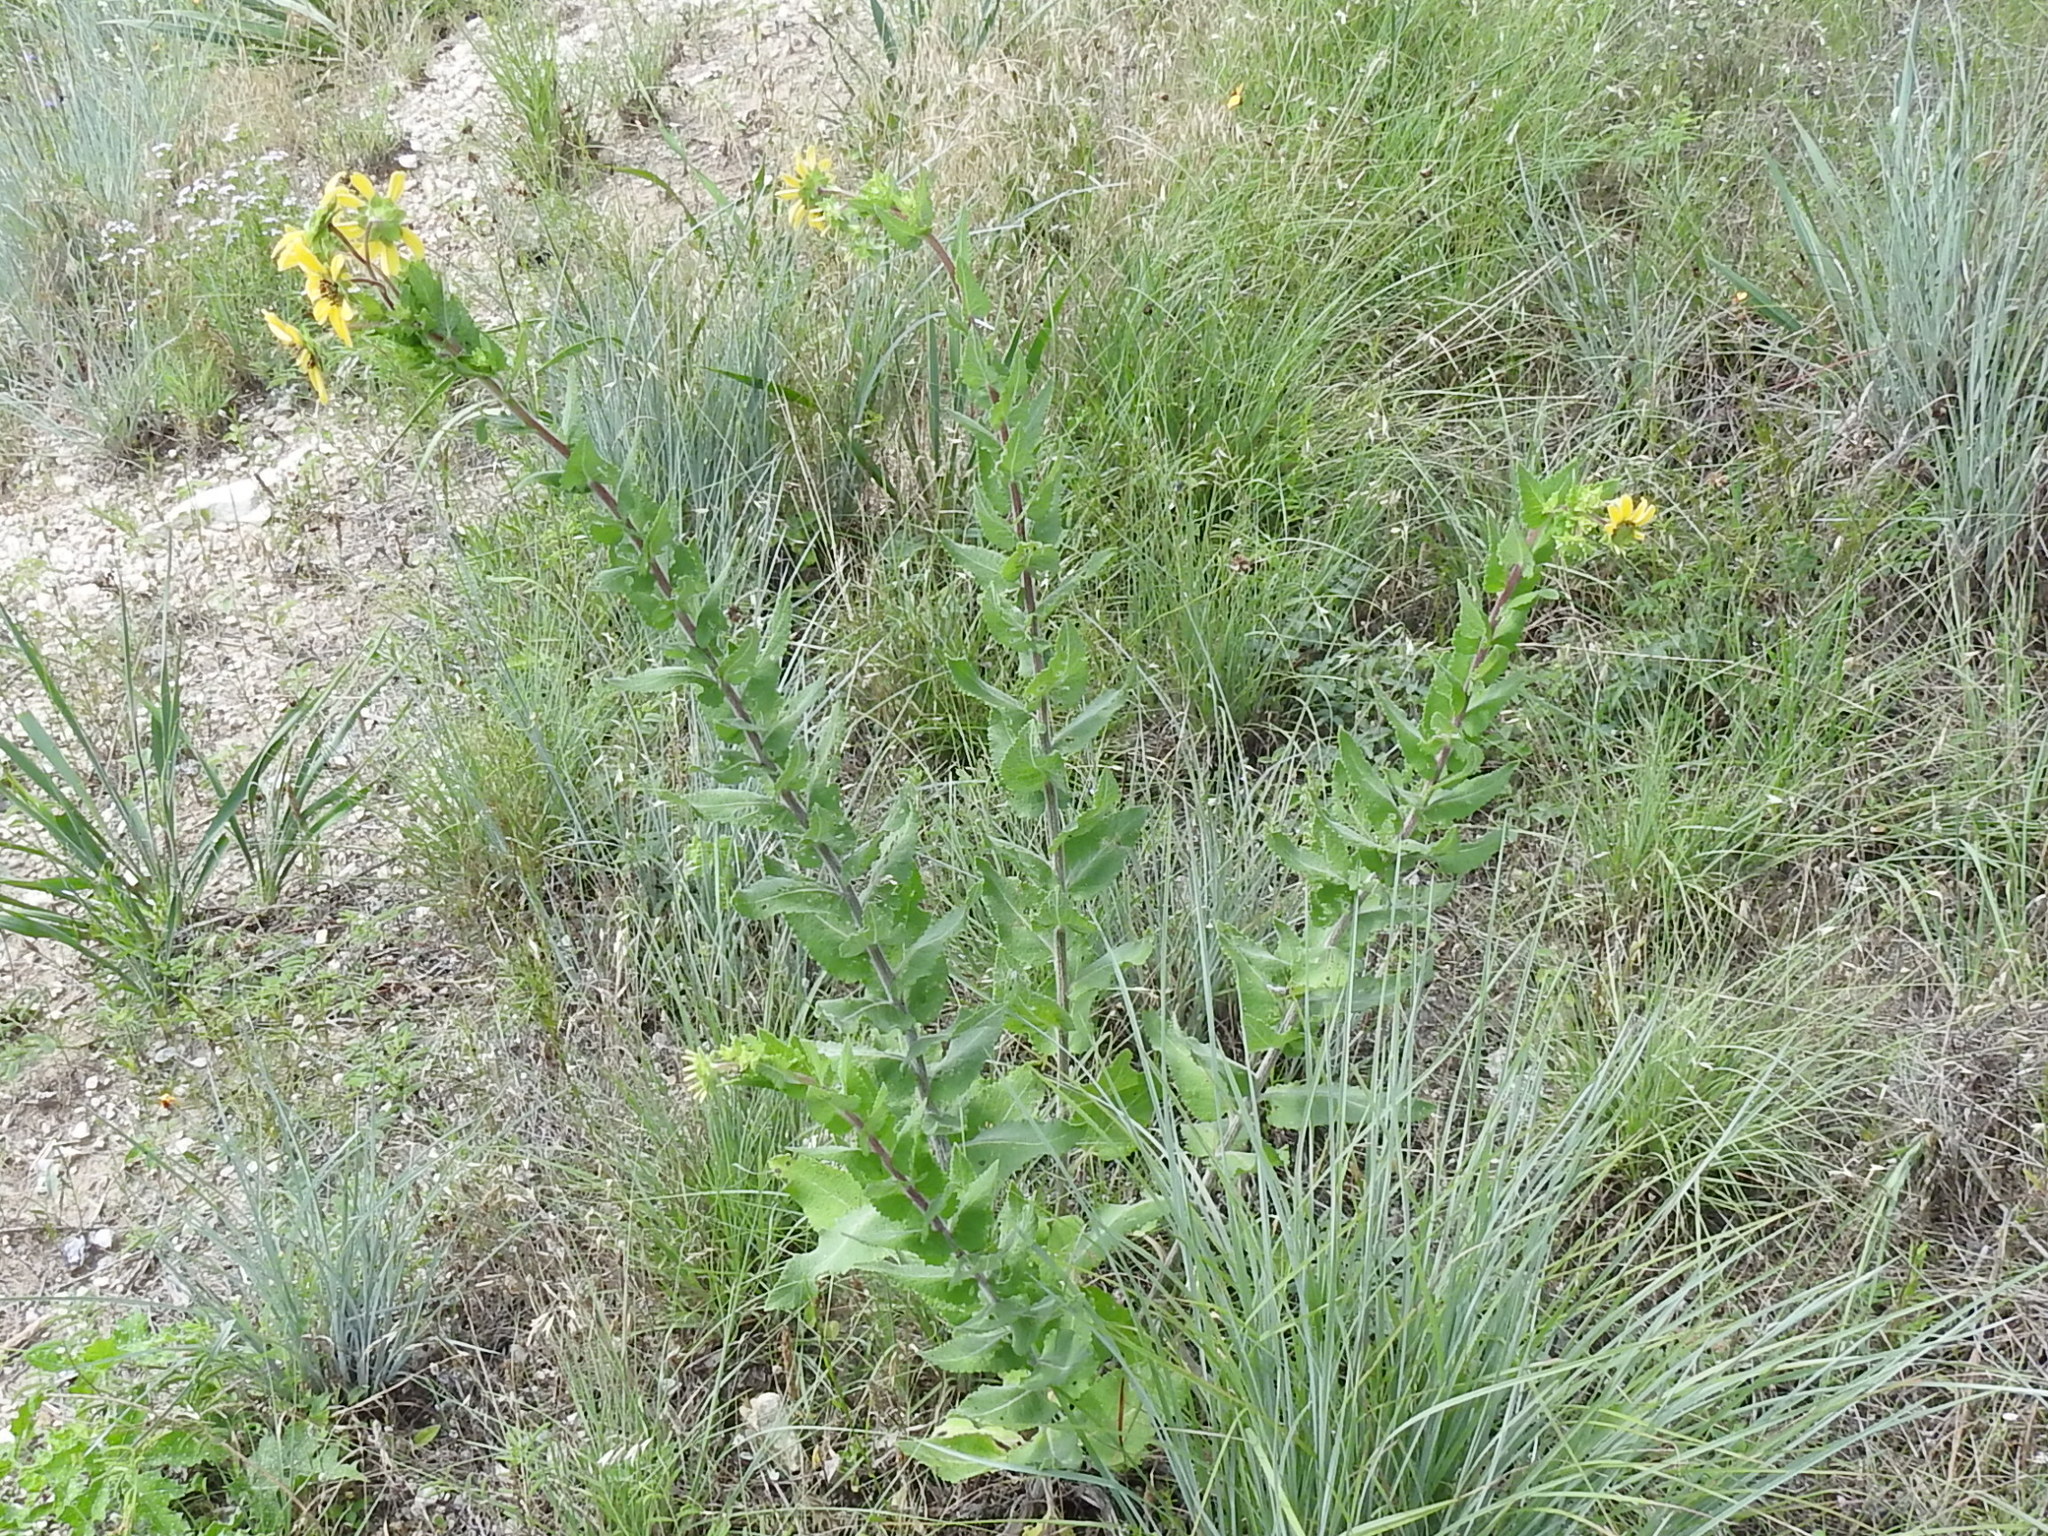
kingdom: Plantae
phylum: Tracheophyta
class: Magnoliopsida
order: Asterales
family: Asteraceae
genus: Berlandiera
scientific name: Berlandiera betonicifolia
